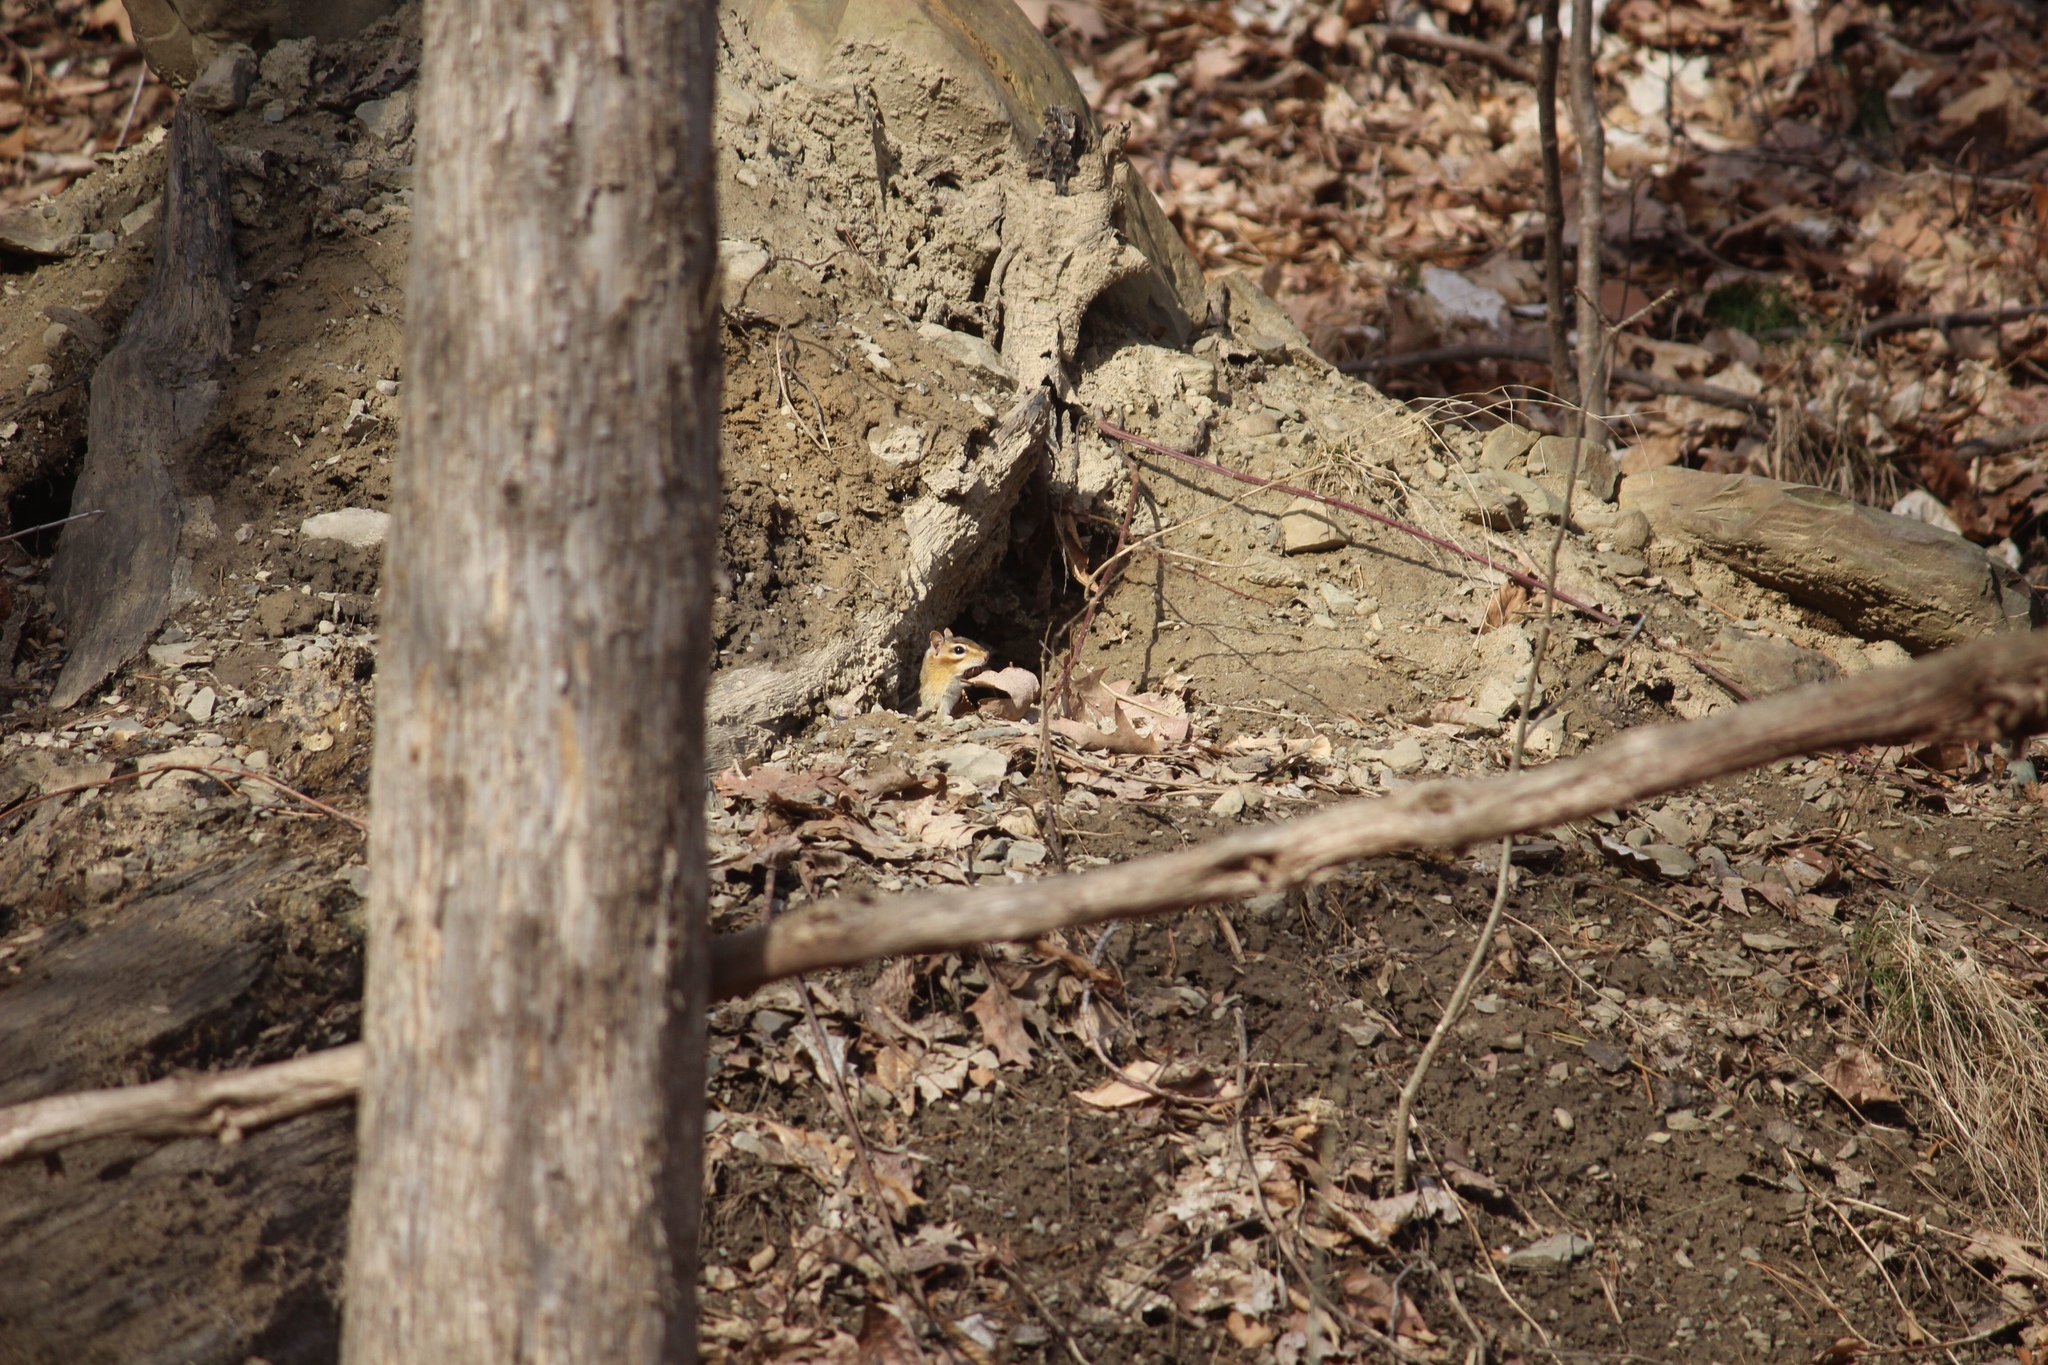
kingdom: Animalia
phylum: Chordata
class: Mammalia
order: Rodentia
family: Sciuridae
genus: Tamias
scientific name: Tamias striatus
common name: Eastern chipmunk
